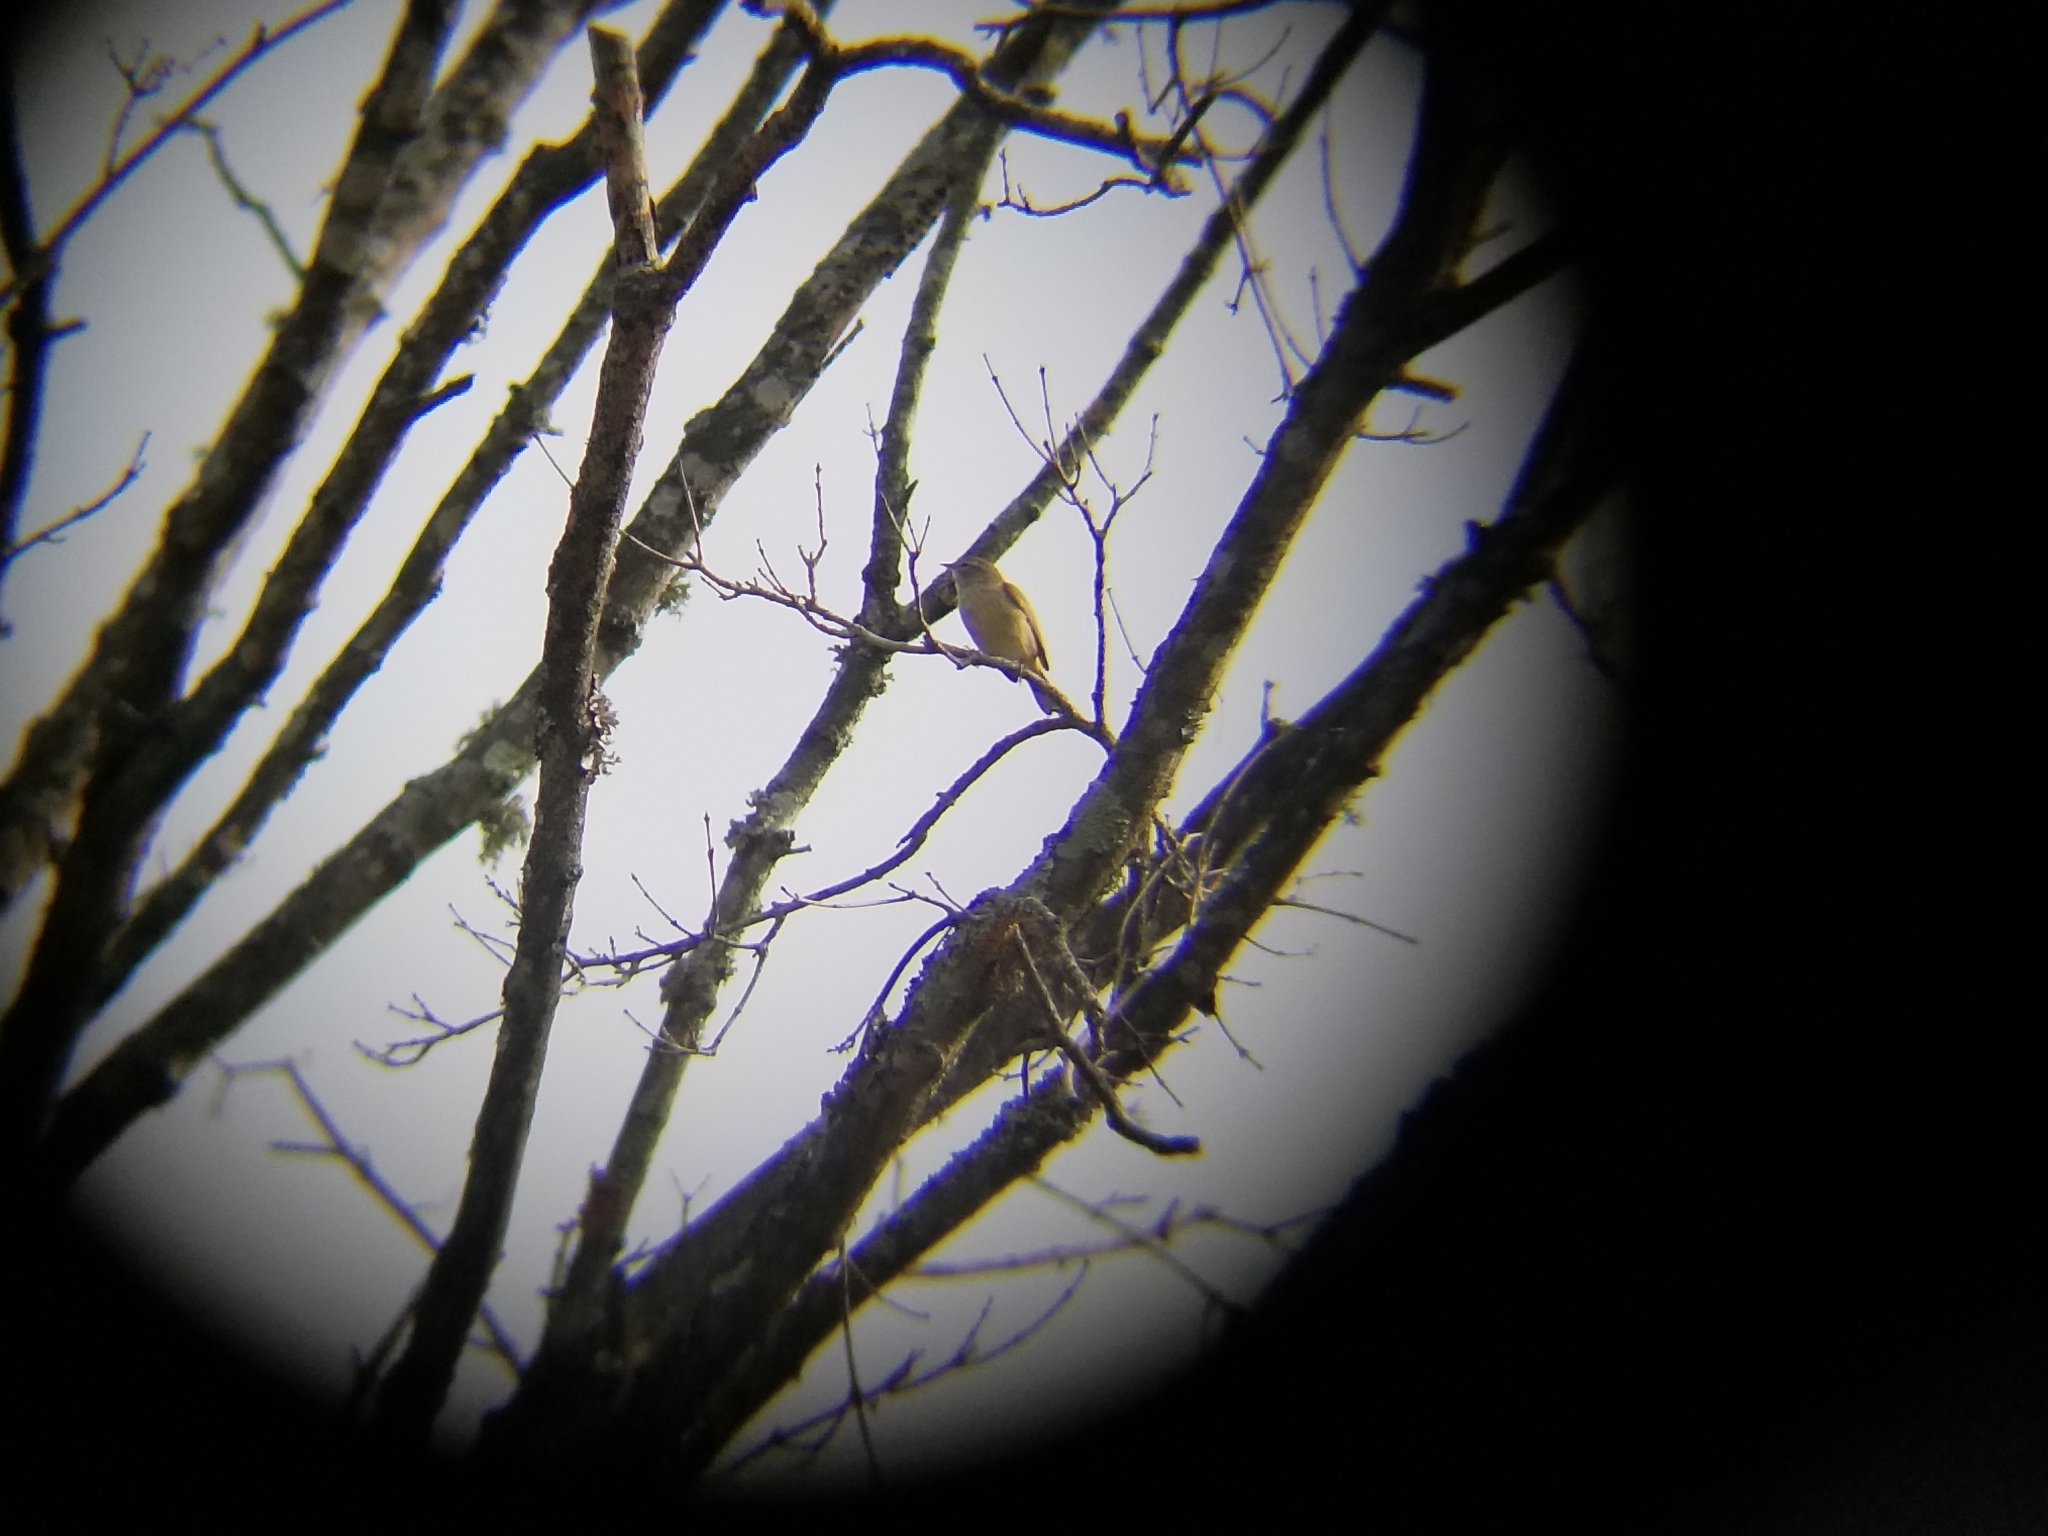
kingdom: Animalia
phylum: Chordata
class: Aves
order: Passeriformes
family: Parulidae
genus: Setophaga
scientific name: Setophaga palmarum
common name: Palm warbler
